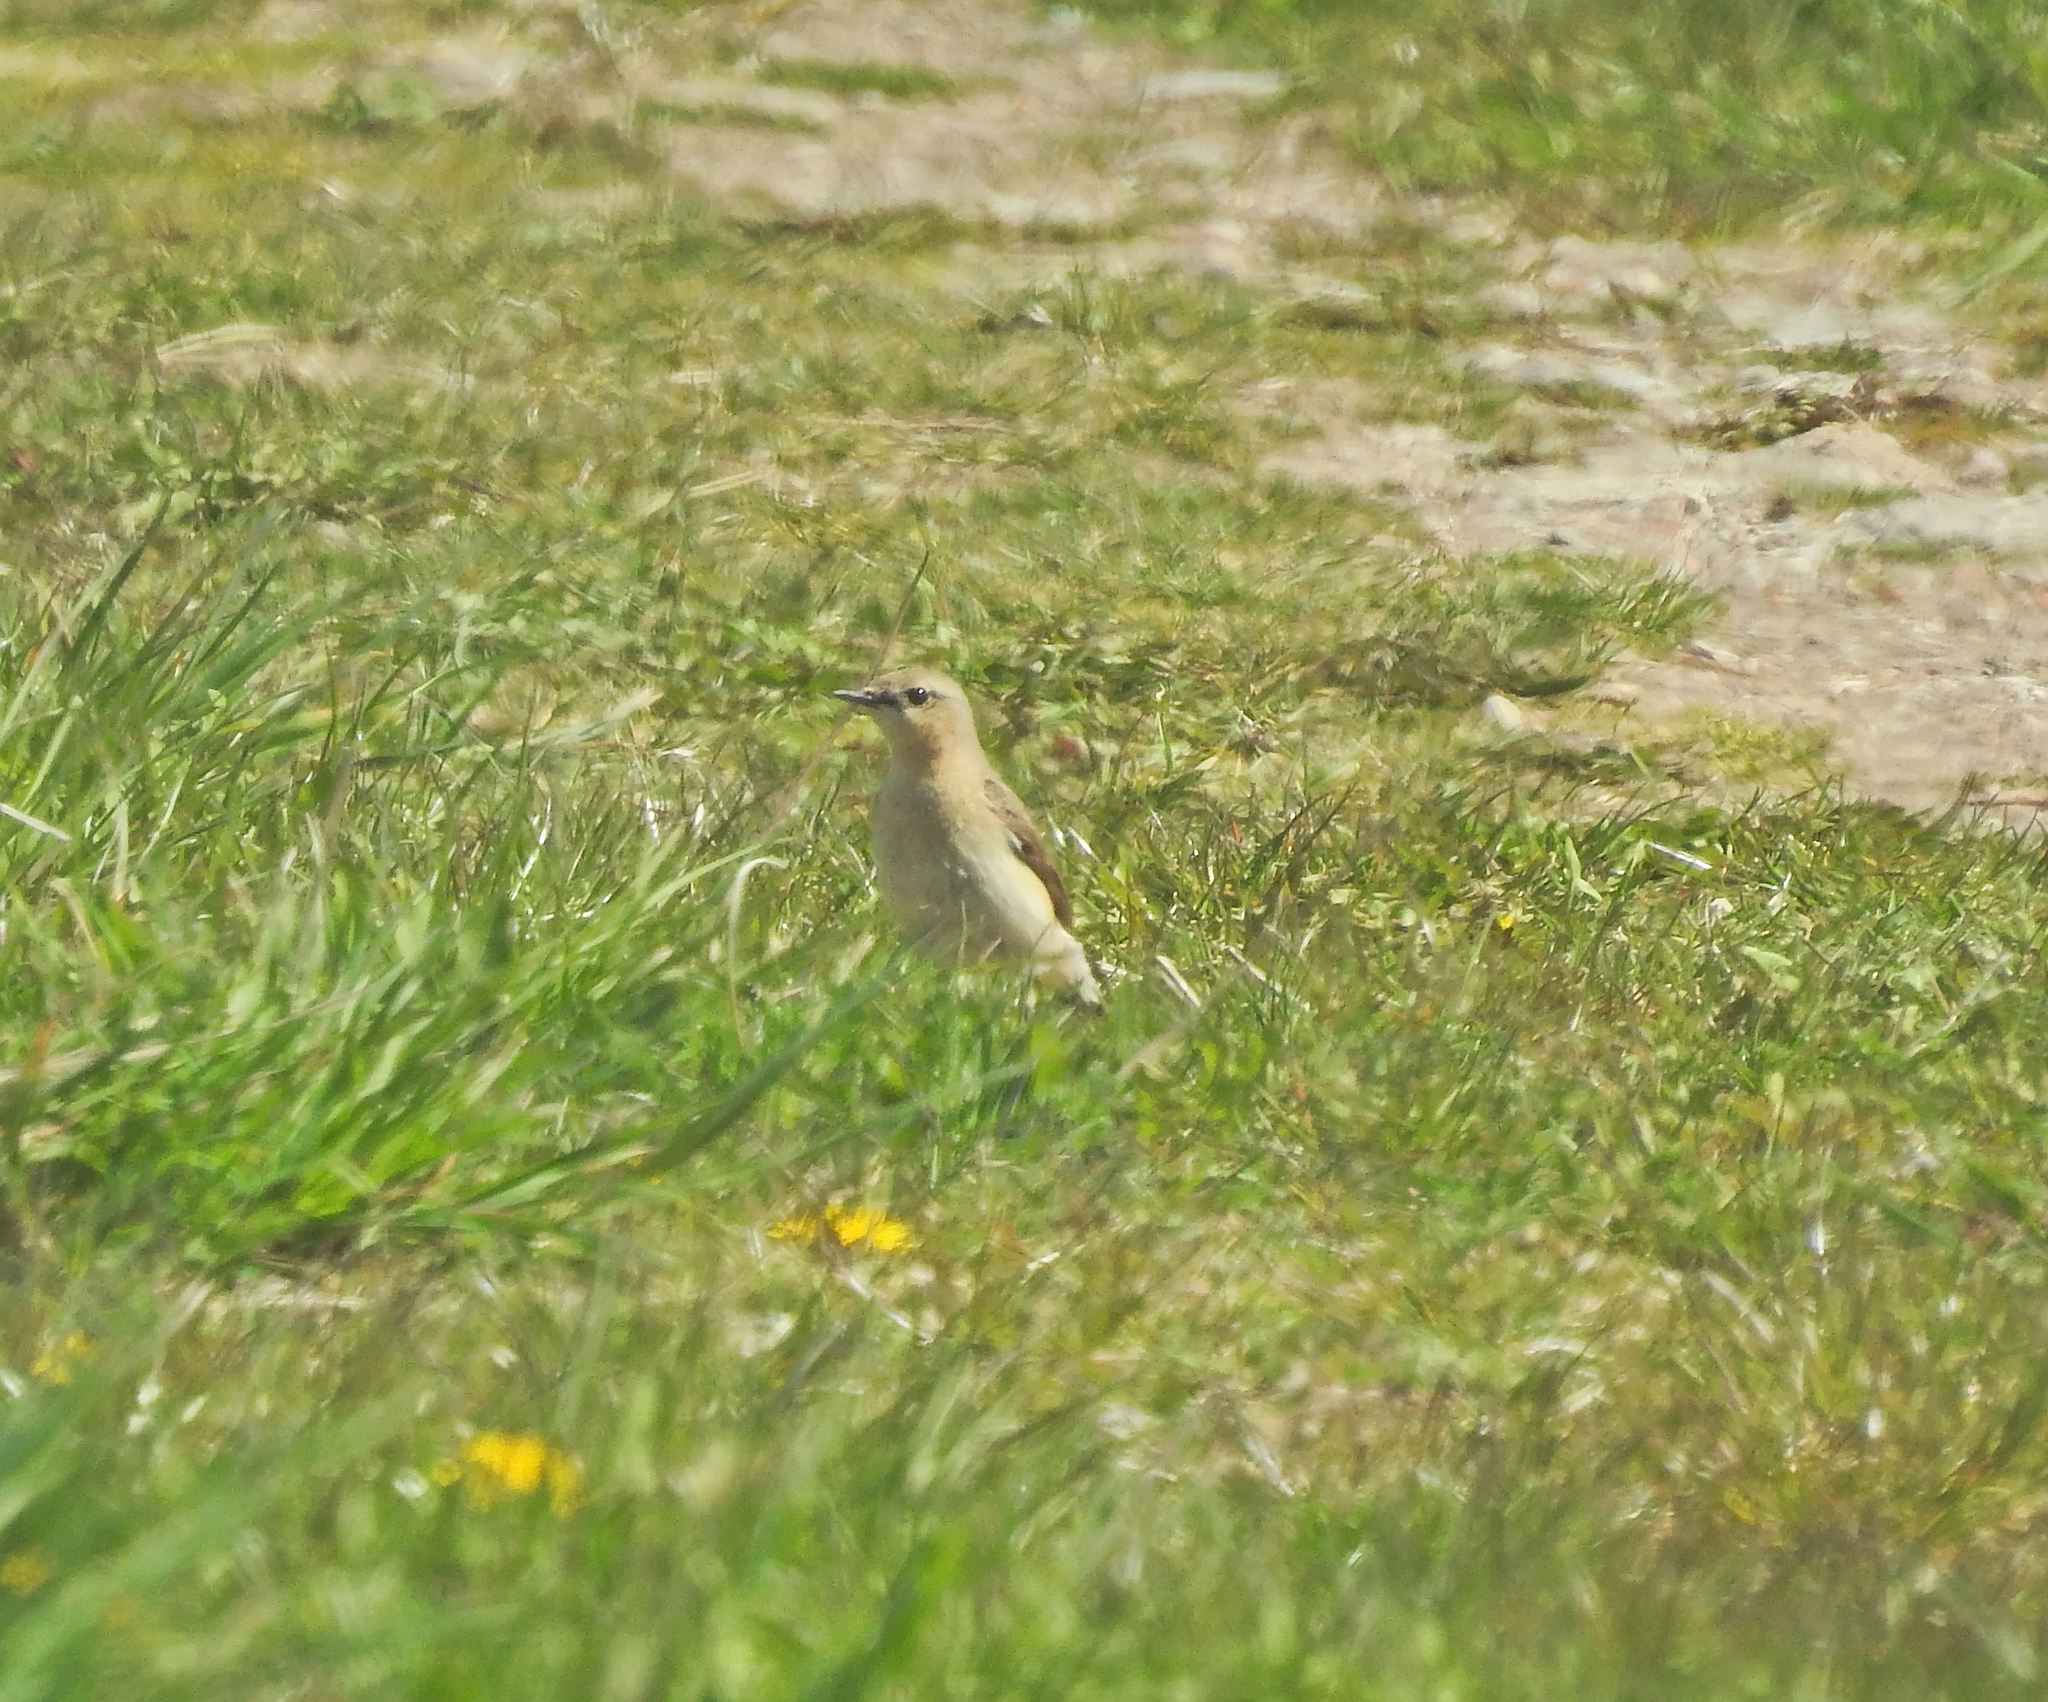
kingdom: Animalia
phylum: Chordata
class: Aves
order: Passeriformes
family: Muscicapidae
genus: Oenanthe
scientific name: Oenanthe oenanthe
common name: Northern wheatear
